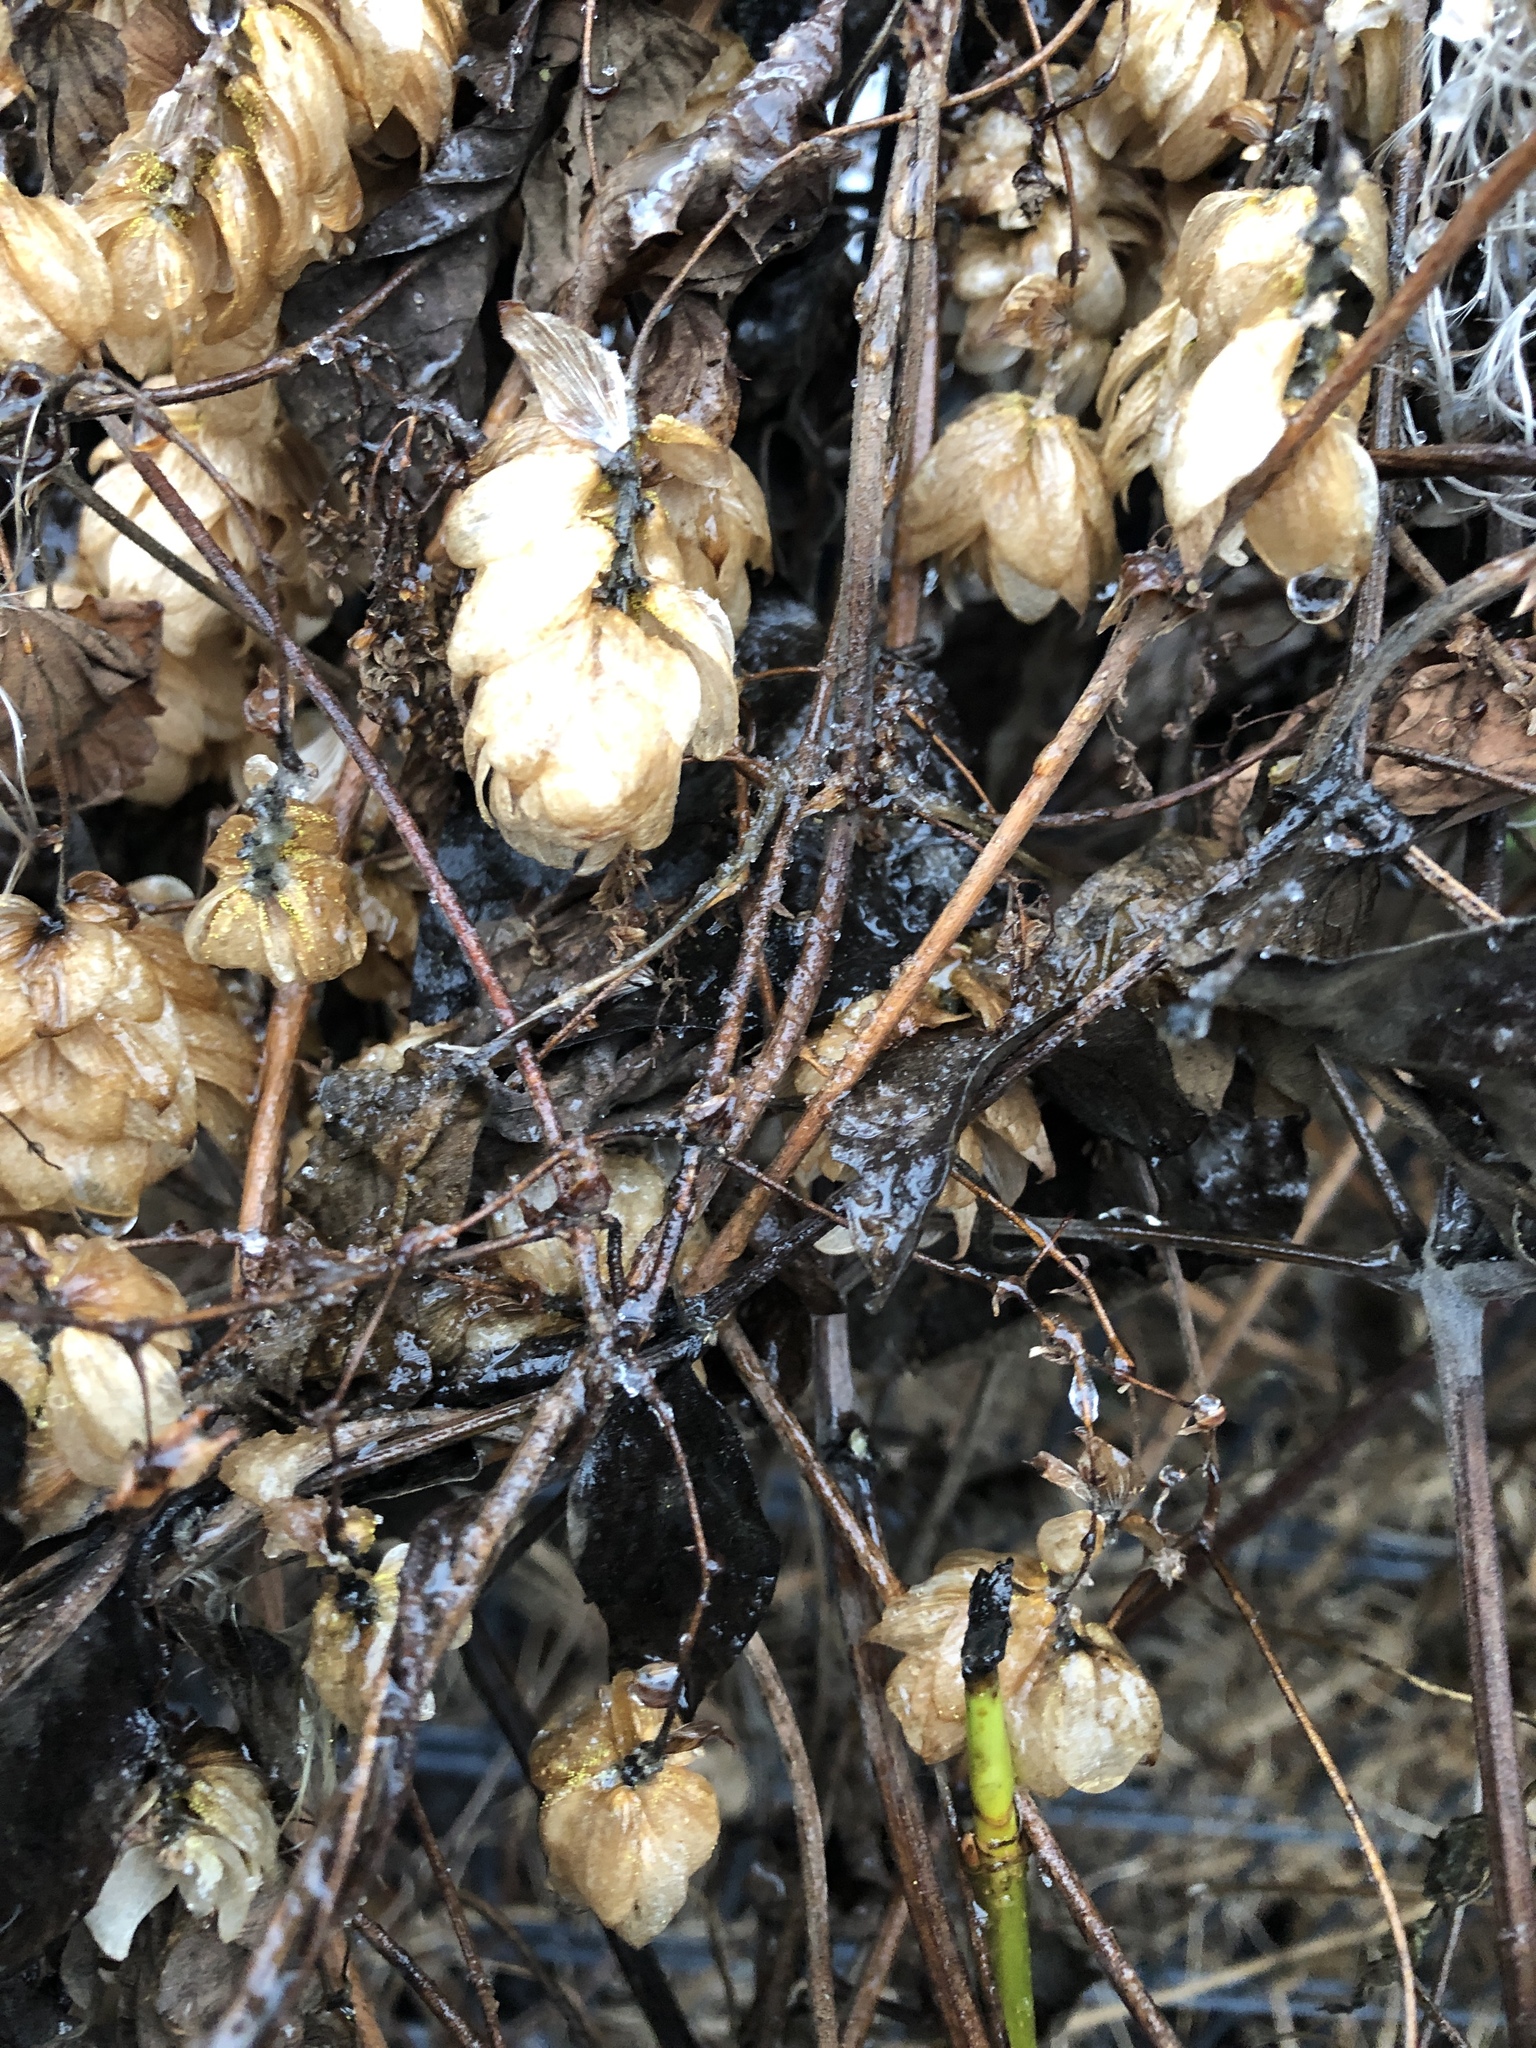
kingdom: Plantae
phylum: Tracheophyta
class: Magnoliopsida
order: Rosales
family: Cannabaceae
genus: Humulus
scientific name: Humulus lupulus
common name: Hop
